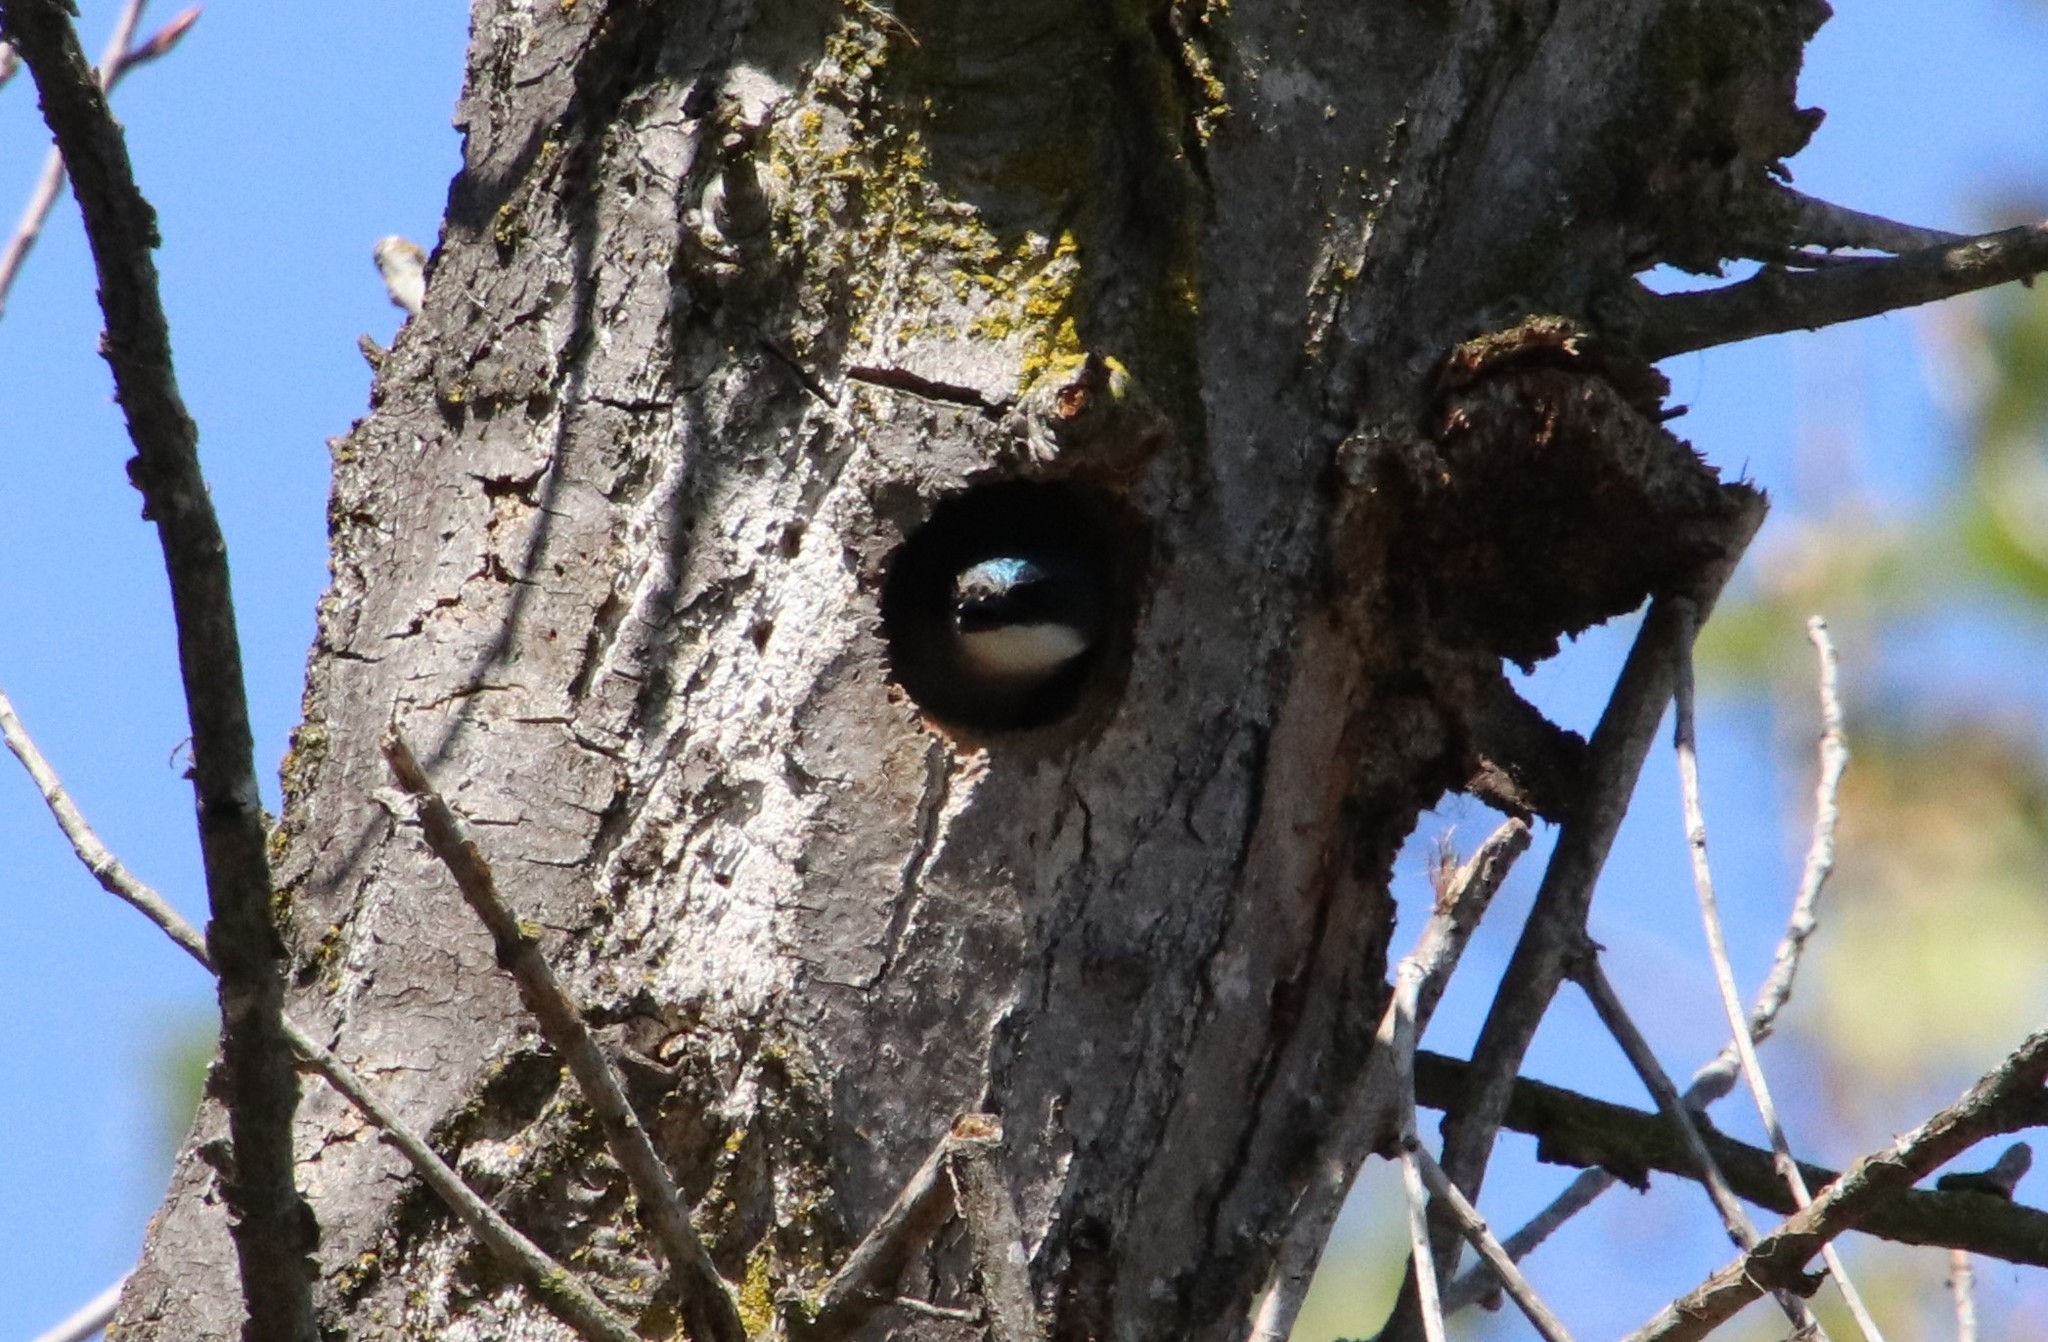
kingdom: Animalia
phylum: Chordata
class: Aves
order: Passeriformes
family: Hirundinidae
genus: Tachycineta
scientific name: Tachycineta bicolor
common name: Tree swallow
